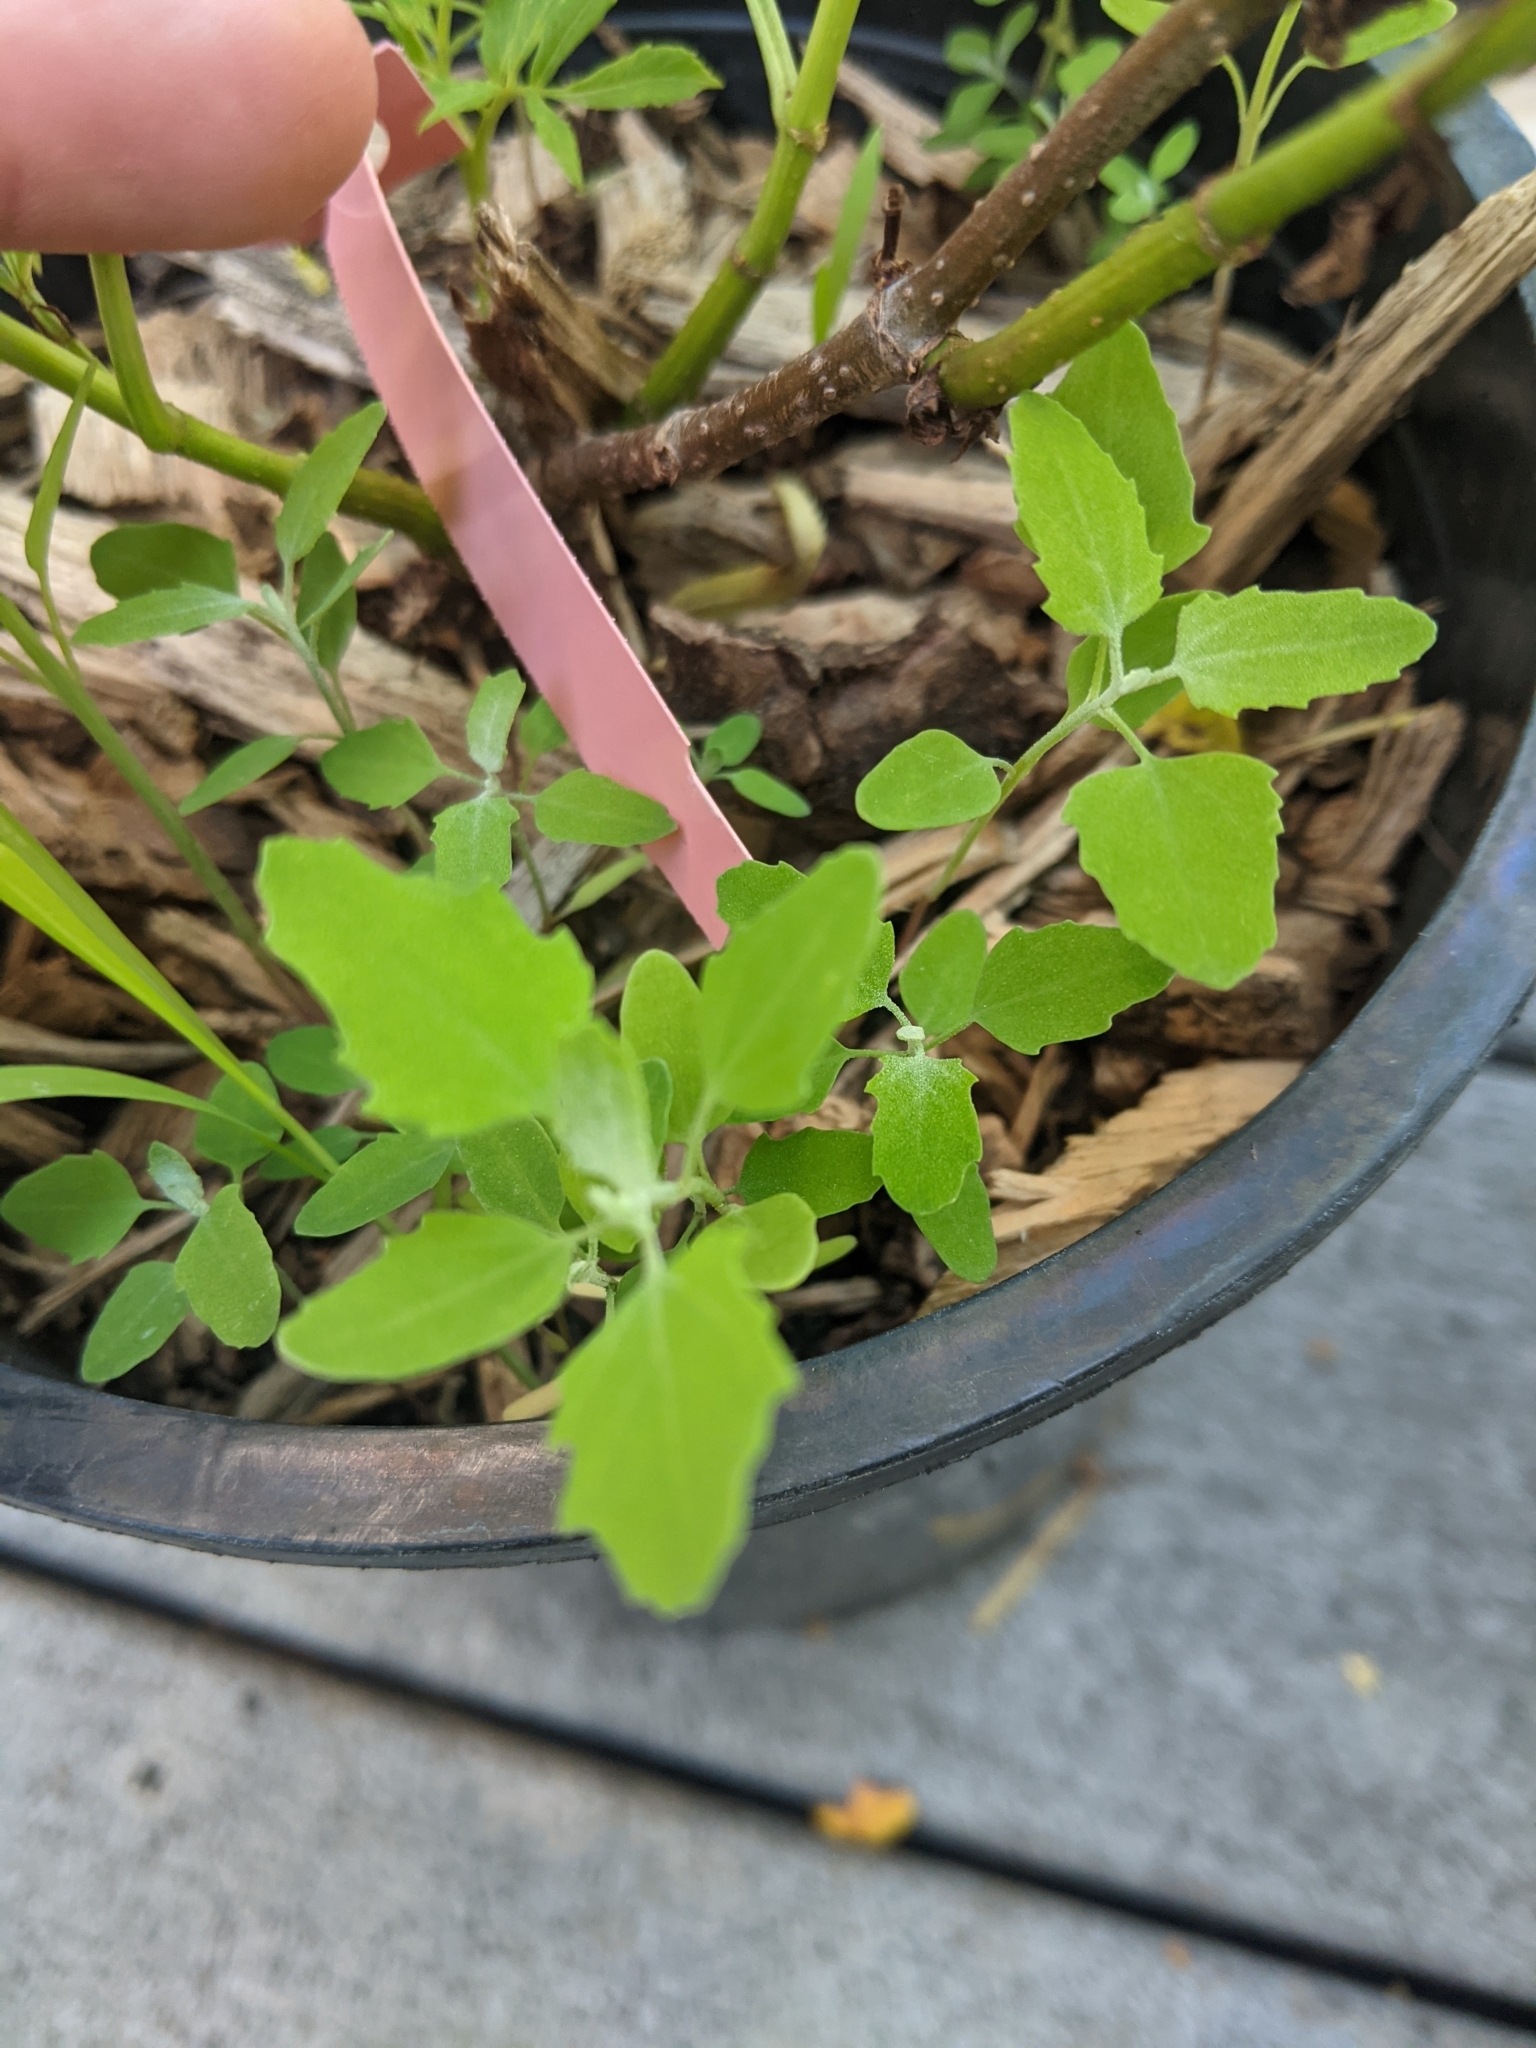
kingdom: Plantae
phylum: Tracheophyta
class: Magnoliopsida
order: Caryophyllales
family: Amaranthaceae
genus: Chenopodium
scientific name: Chenopodium album
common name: Fat-hen
